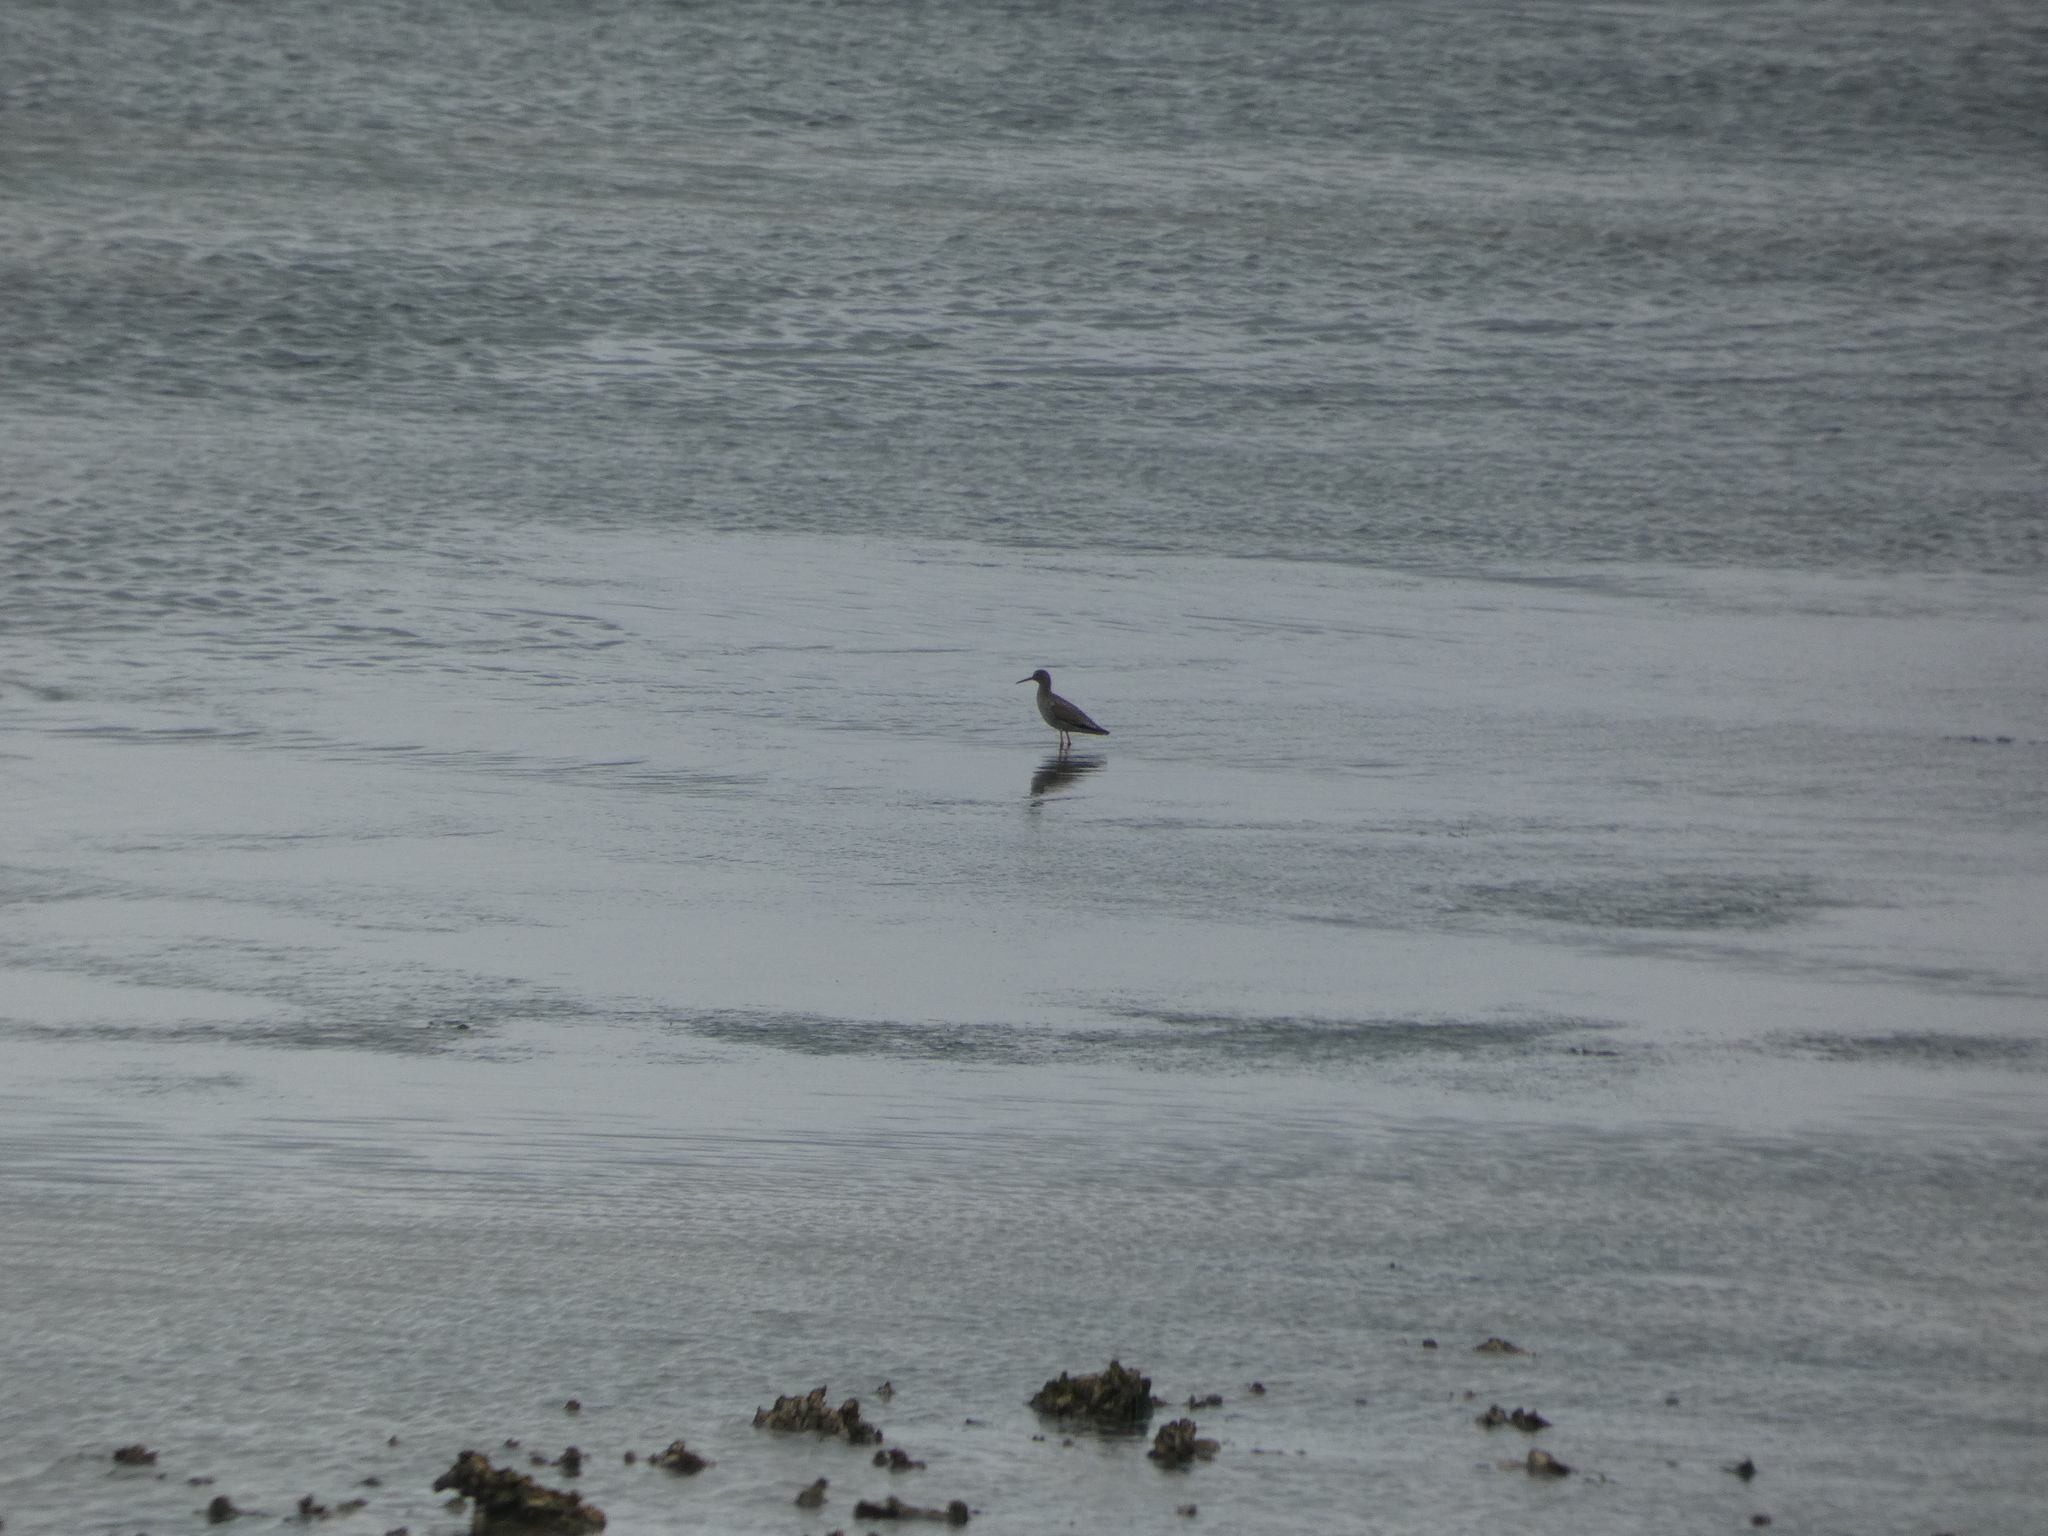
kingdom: Animalia
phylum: Chordata
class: Aves
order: Charadriiformes
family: Scolopacidae
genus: Tringa
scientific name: Tringa totanus
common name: Common redshank
